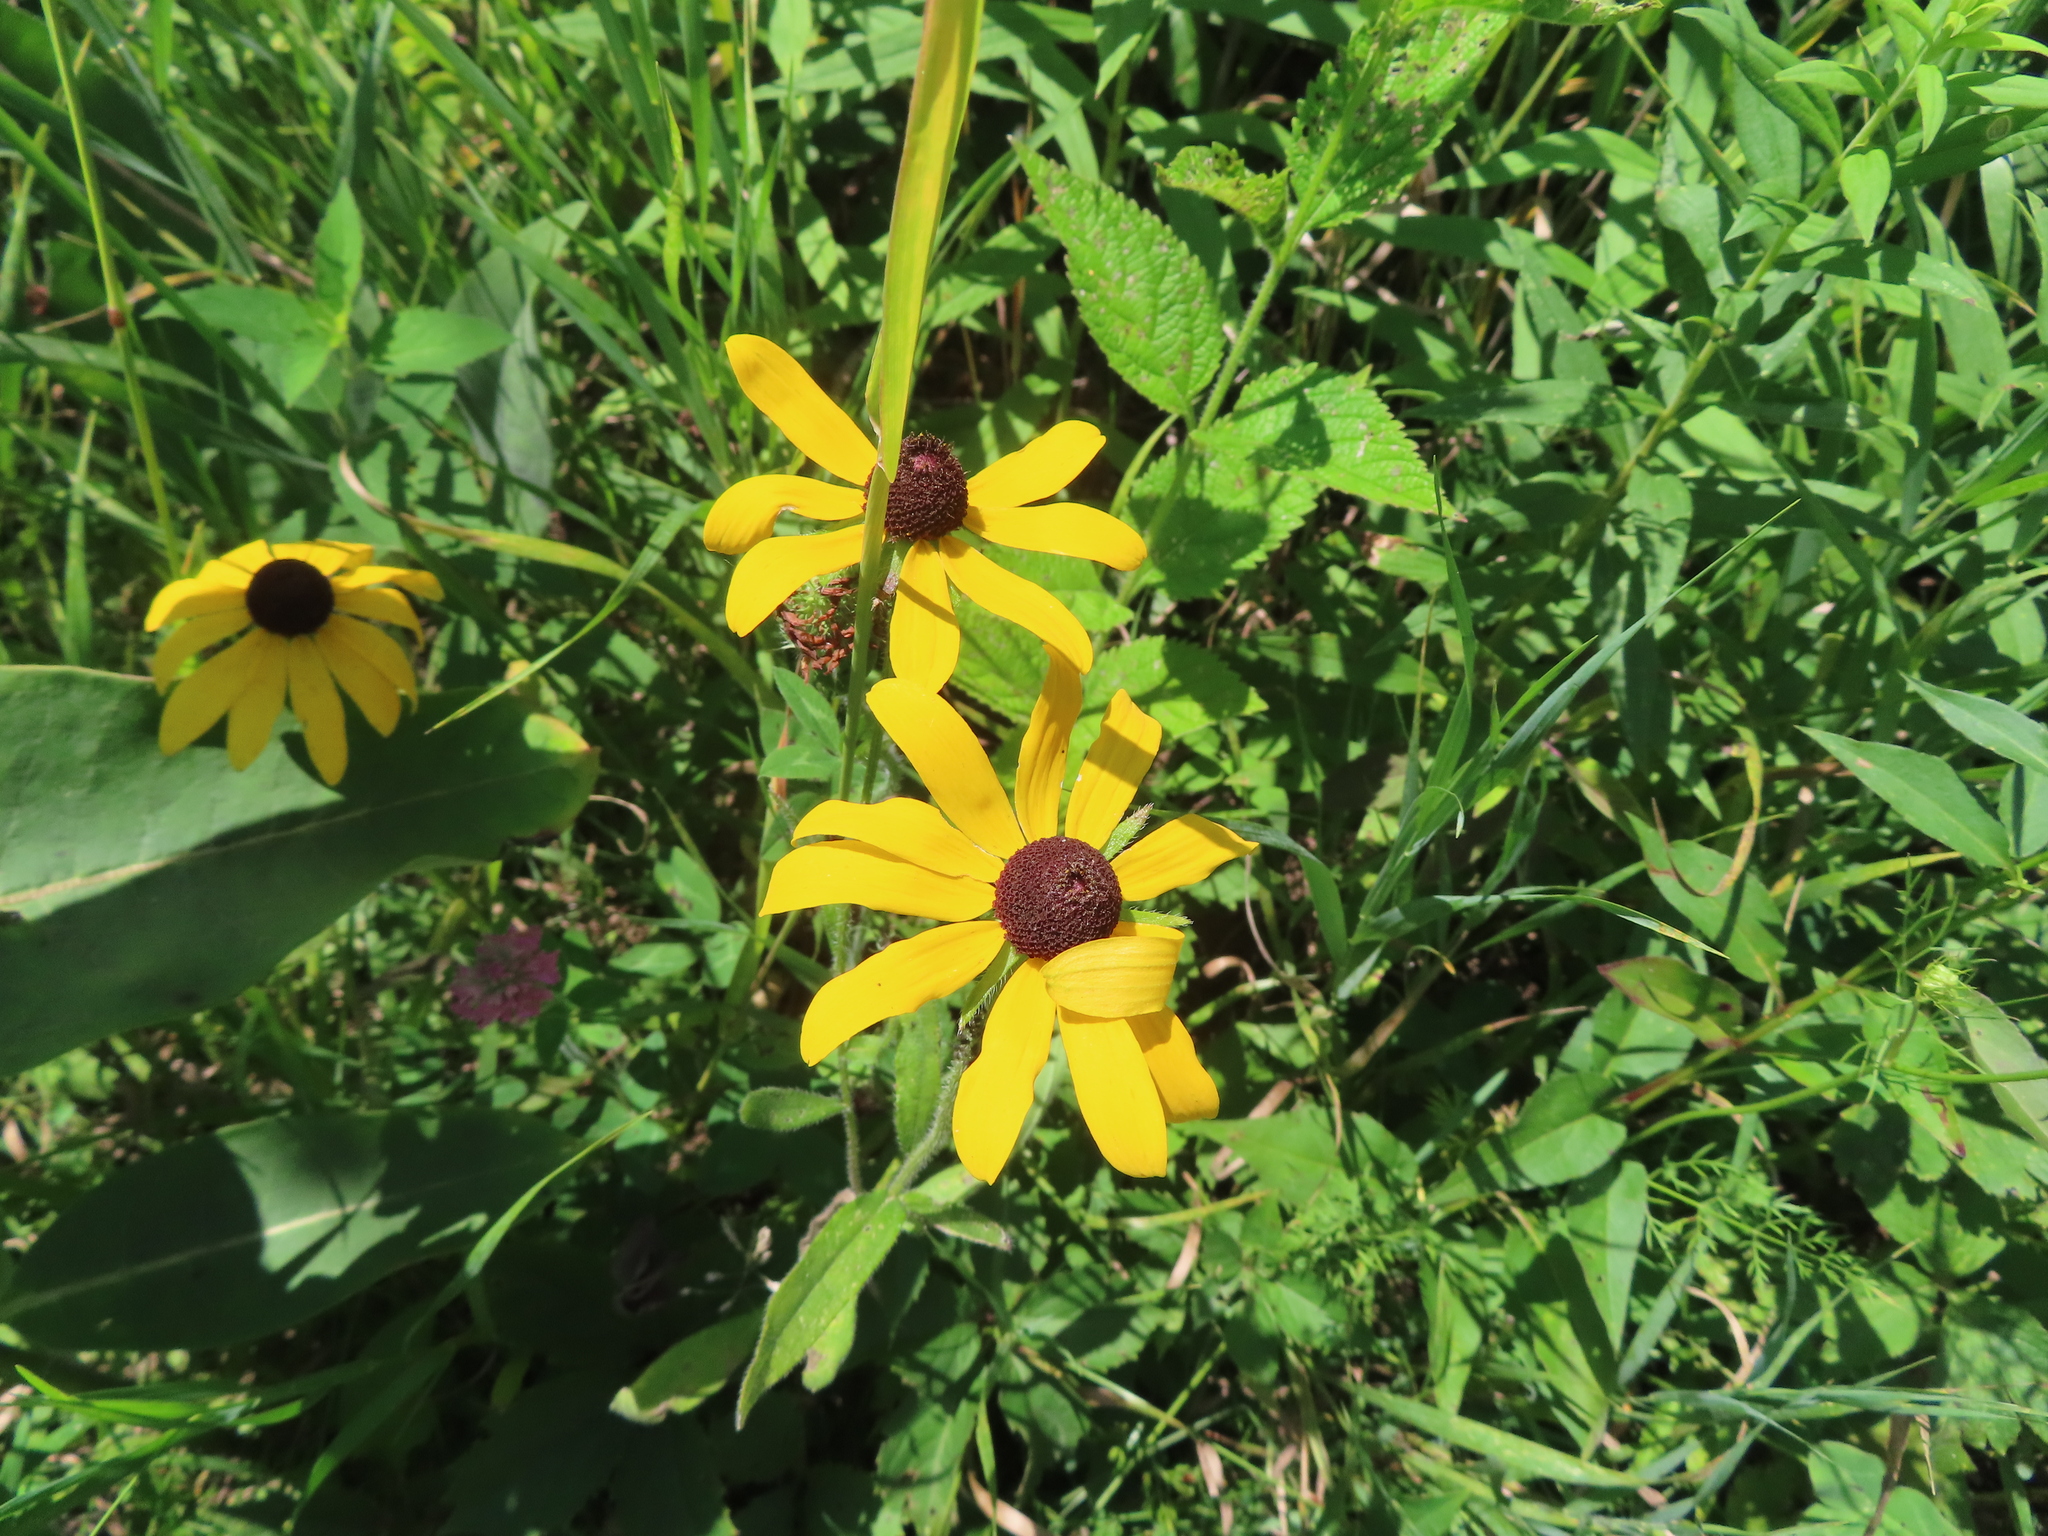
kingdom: Plantae
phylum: Tracheophyta
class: Magnoliopsida
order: Asterales
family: Asteraceae
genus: Rudbeckia
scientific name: Rudbeckia hirta
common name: Black-eyed-susan
